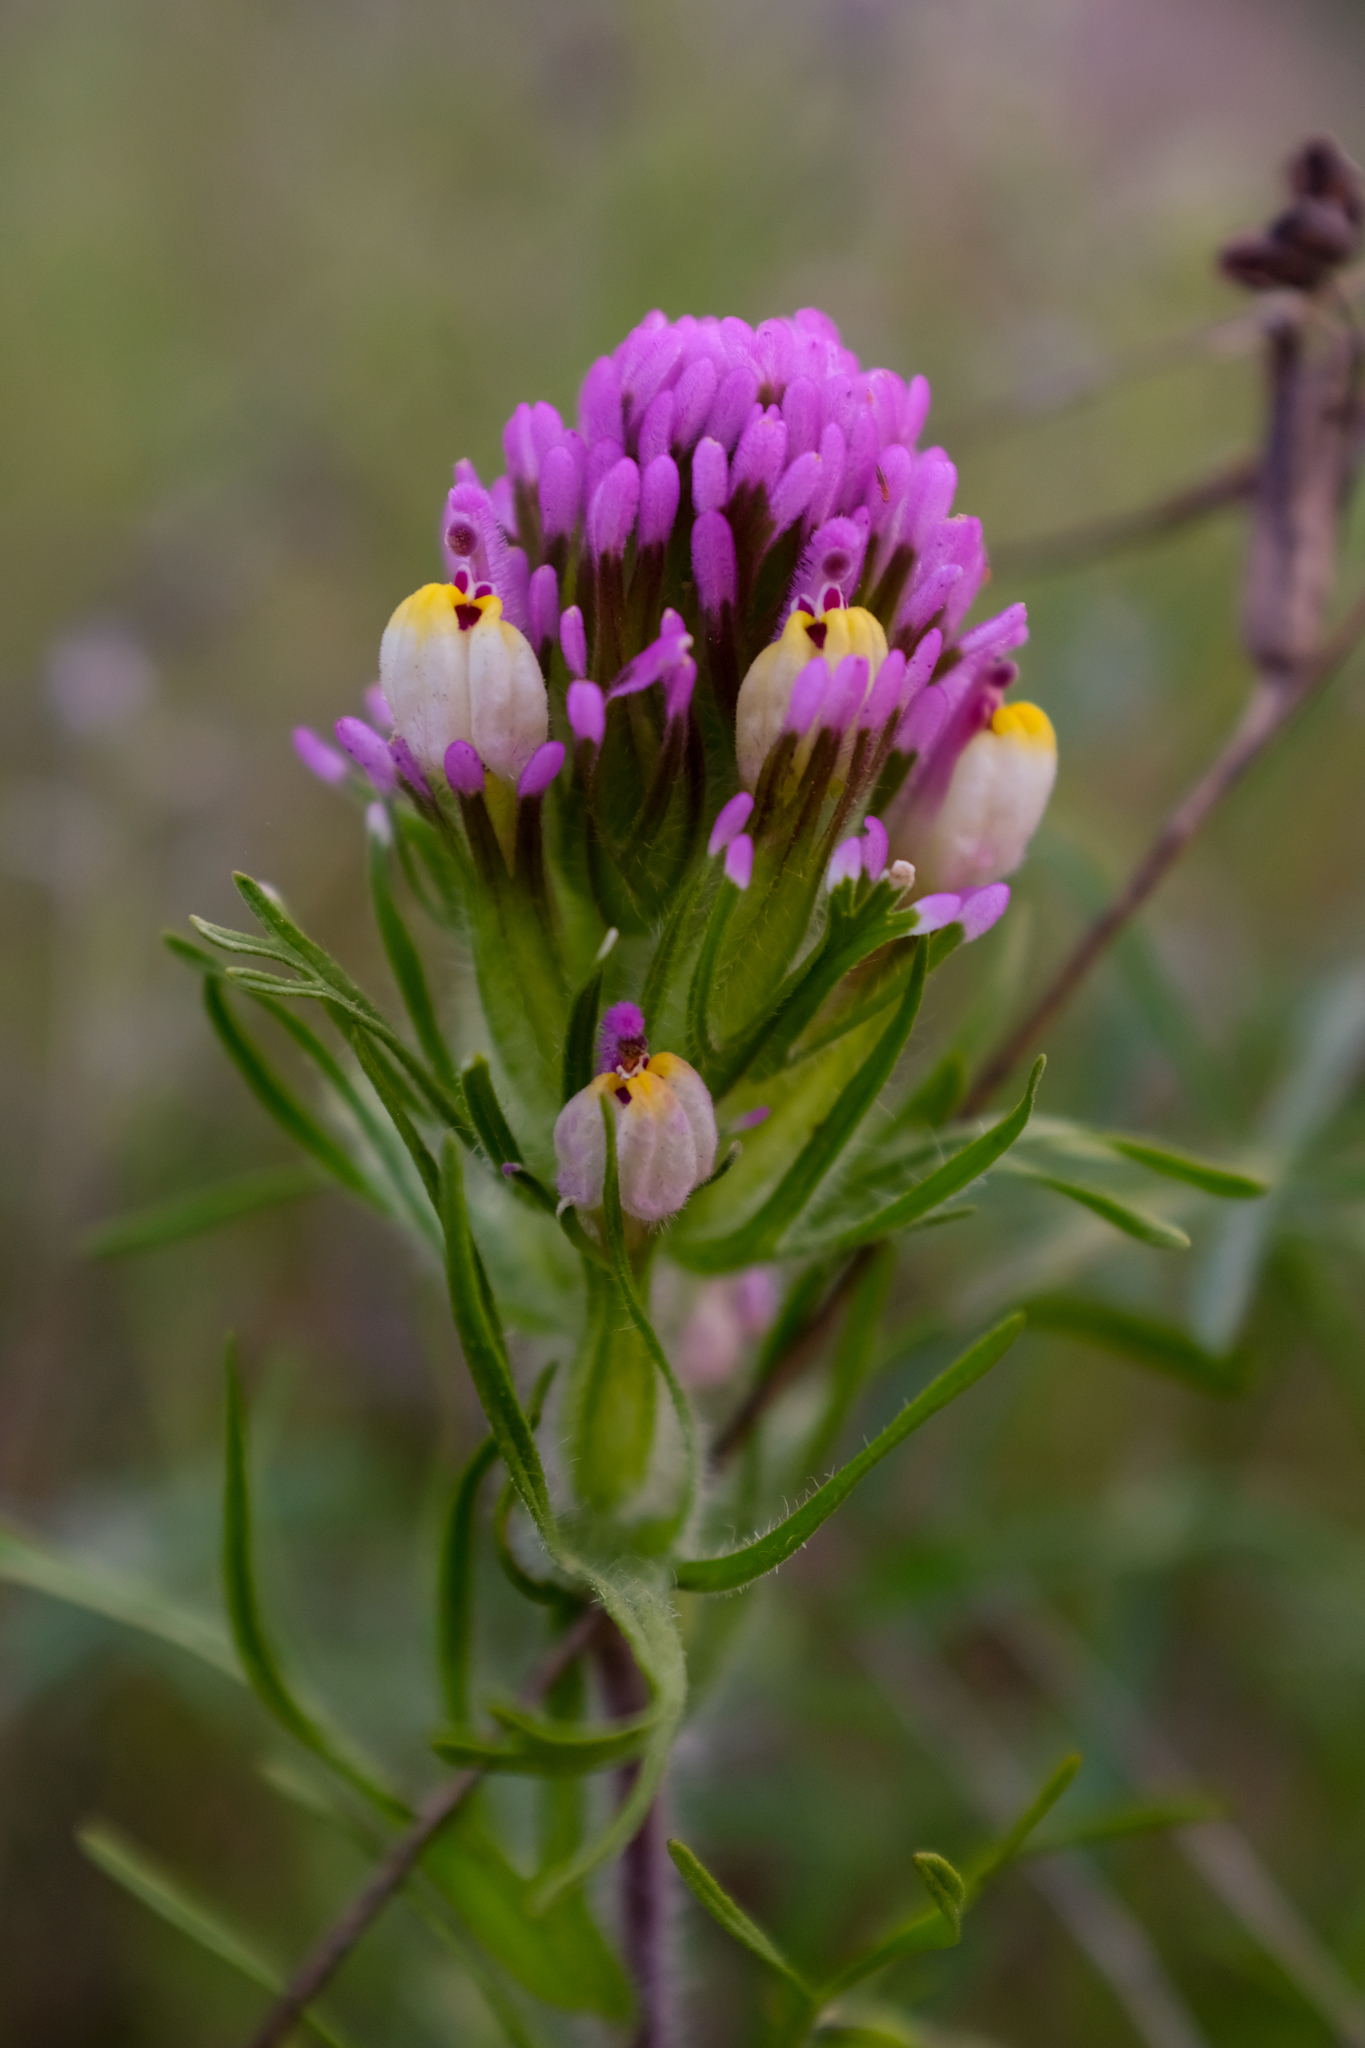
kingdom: Plantae
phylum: Tracheophyta
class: Magnoliopsida
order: Lamiales
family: Orobanchaceae
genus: Castilleja
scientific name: Castilleja exserta
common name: Purple owl-clover
